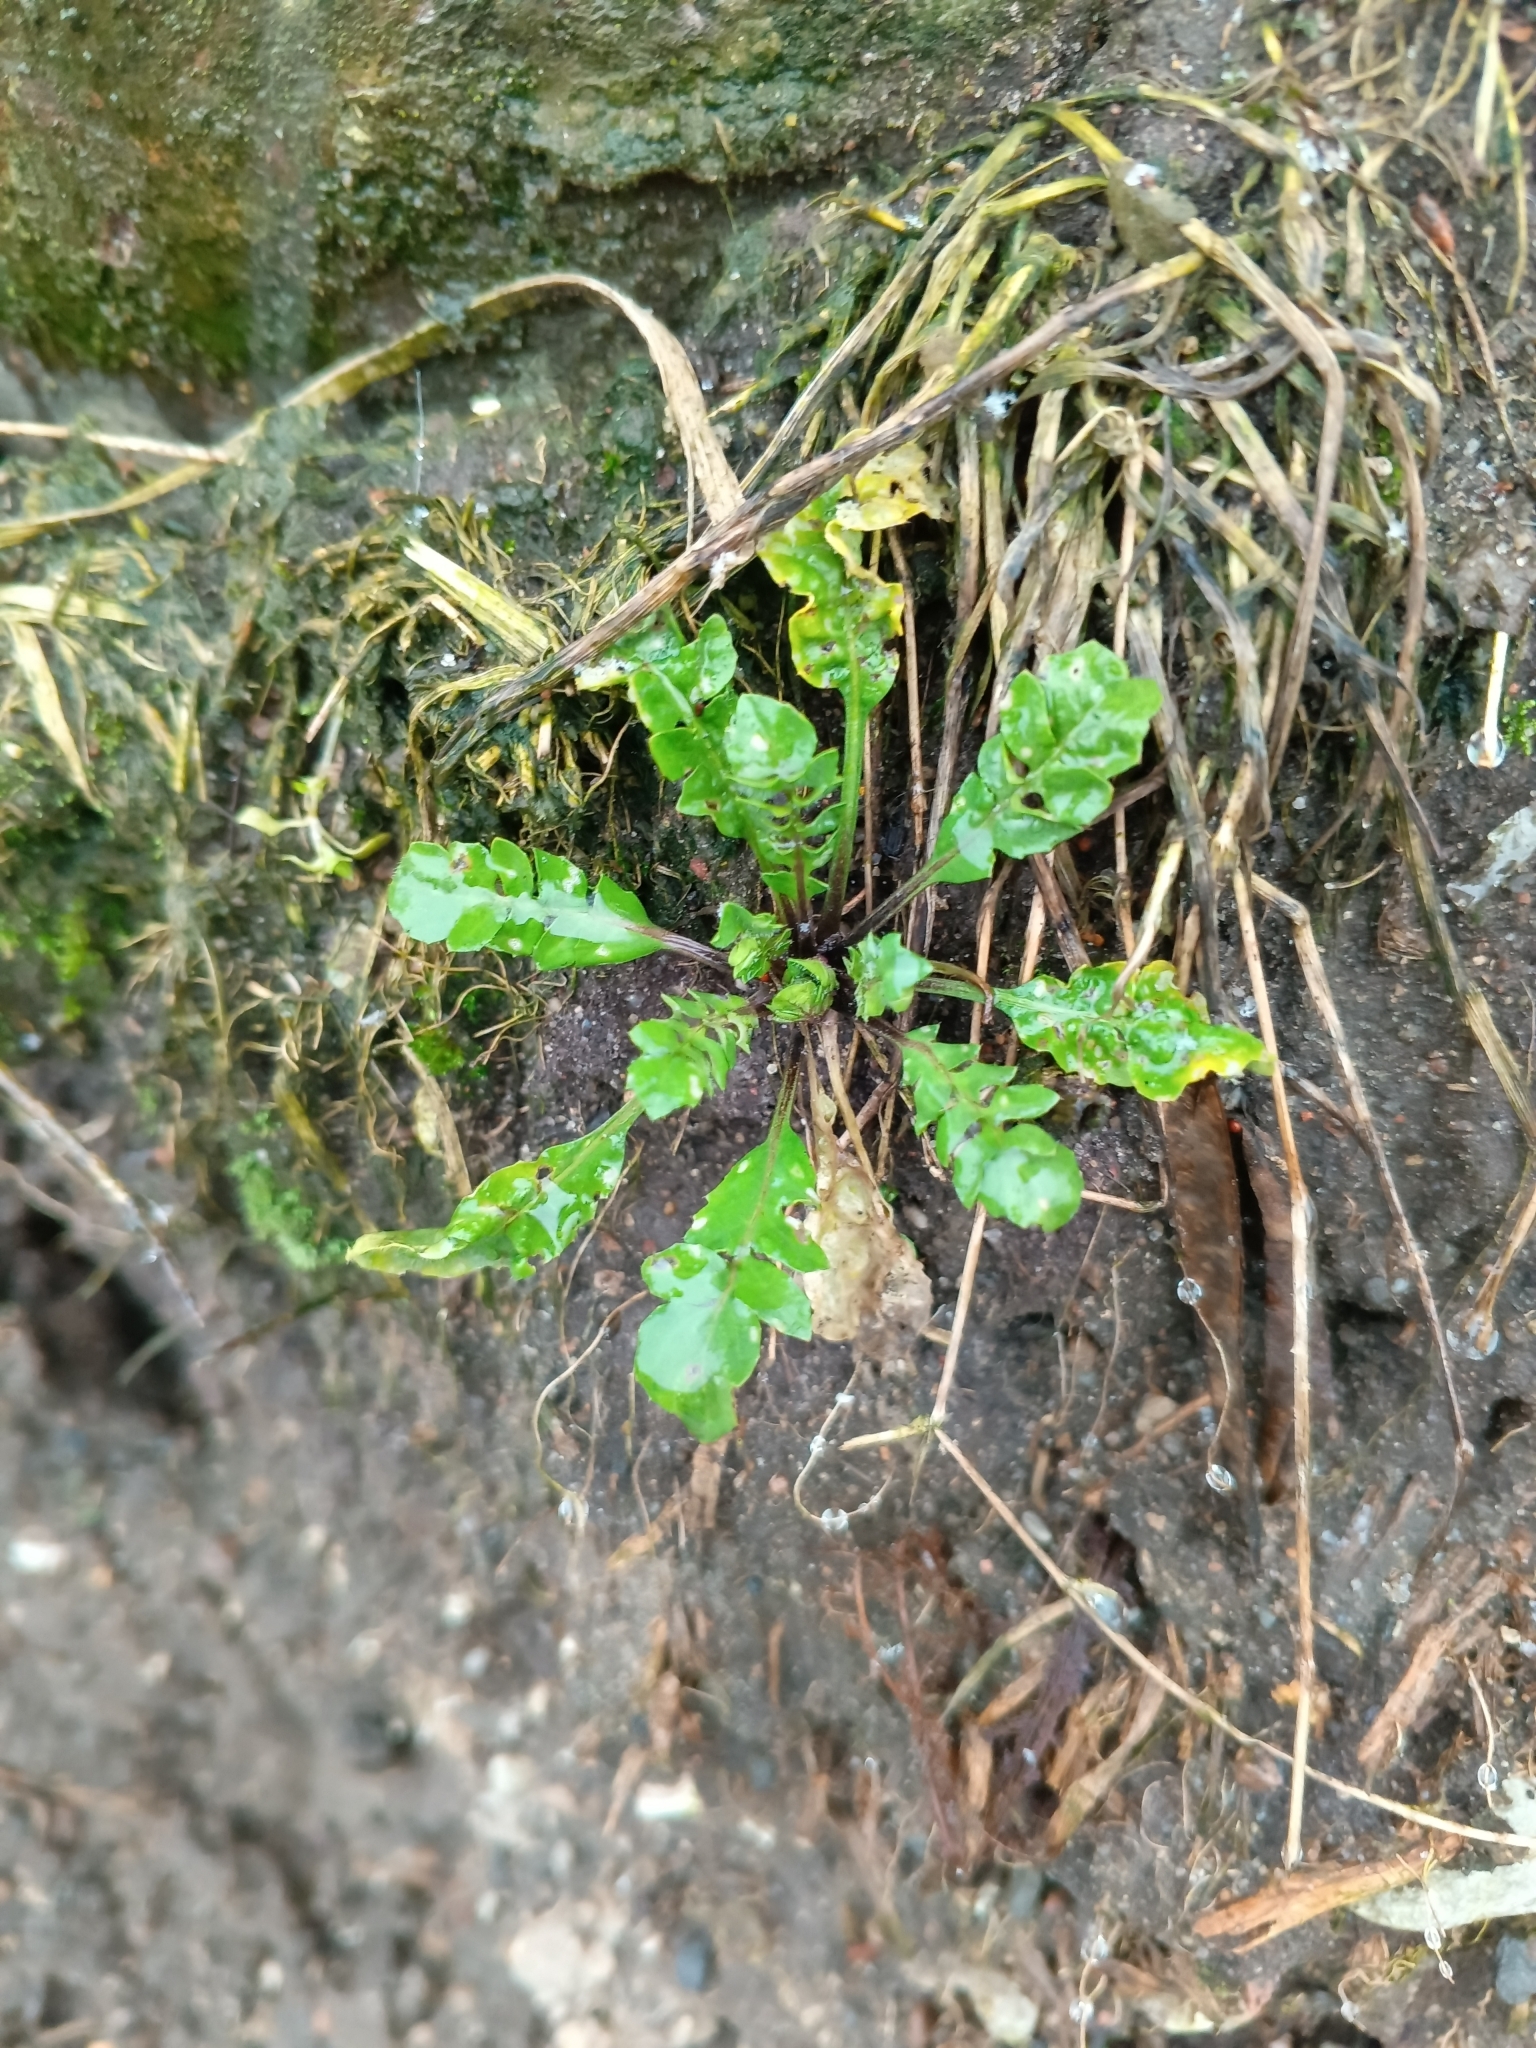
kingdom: Plantae
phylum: Tracheophyta
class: Magnoliopsida
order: Brassicales
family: Brassicaceae
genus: Capsella
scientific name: Capsella bursa-pastoris
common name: Shepherd's purse
